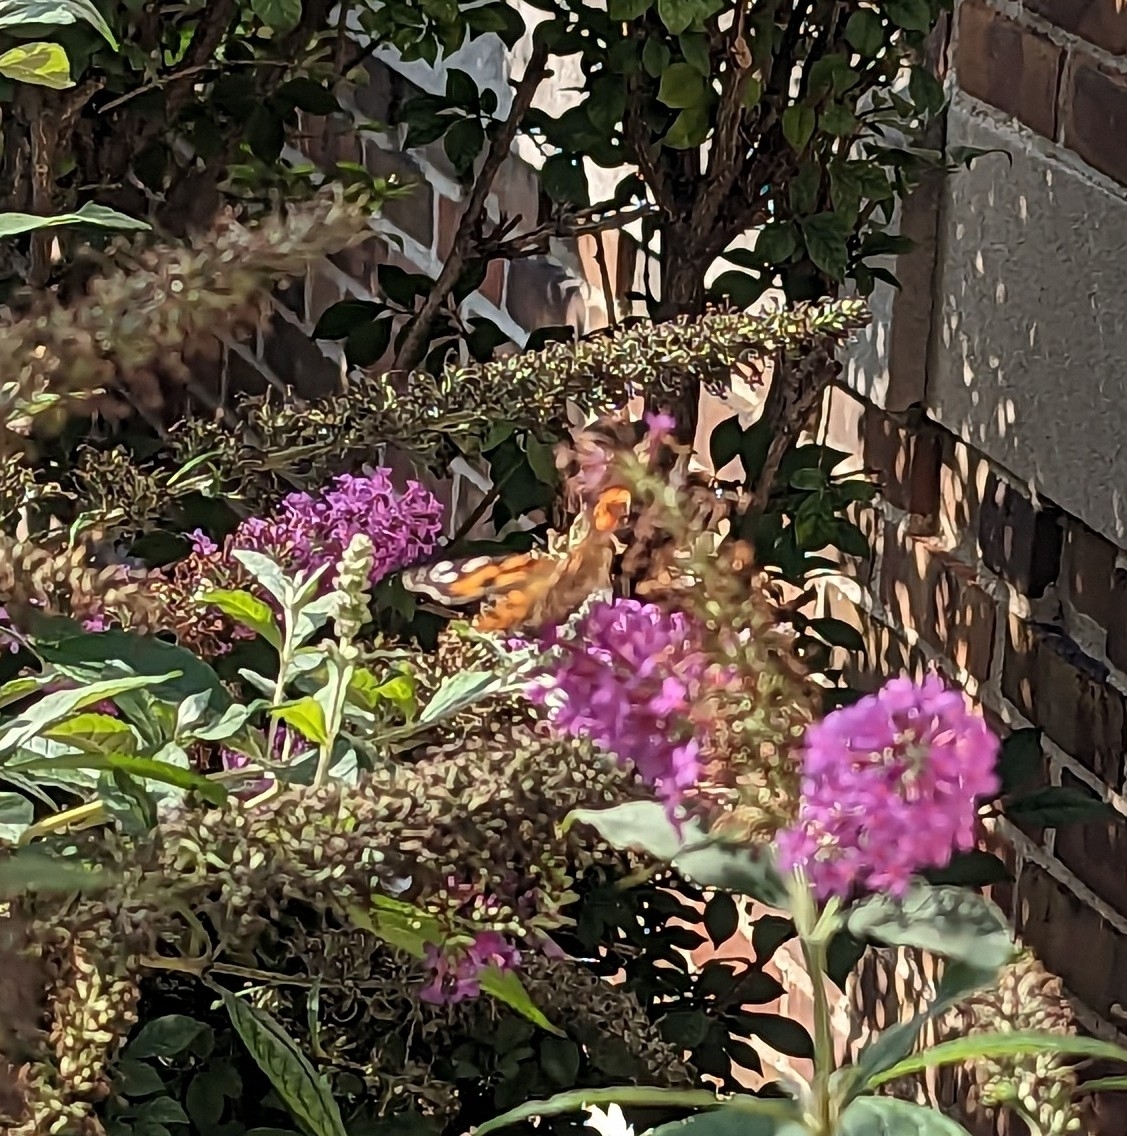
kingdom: Animalia
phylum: Arthropoda
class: Insecta
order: Lepidoptera
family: Nymphalidae
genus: Vanessa
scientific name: Vanessa cardui
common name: Painted lady
